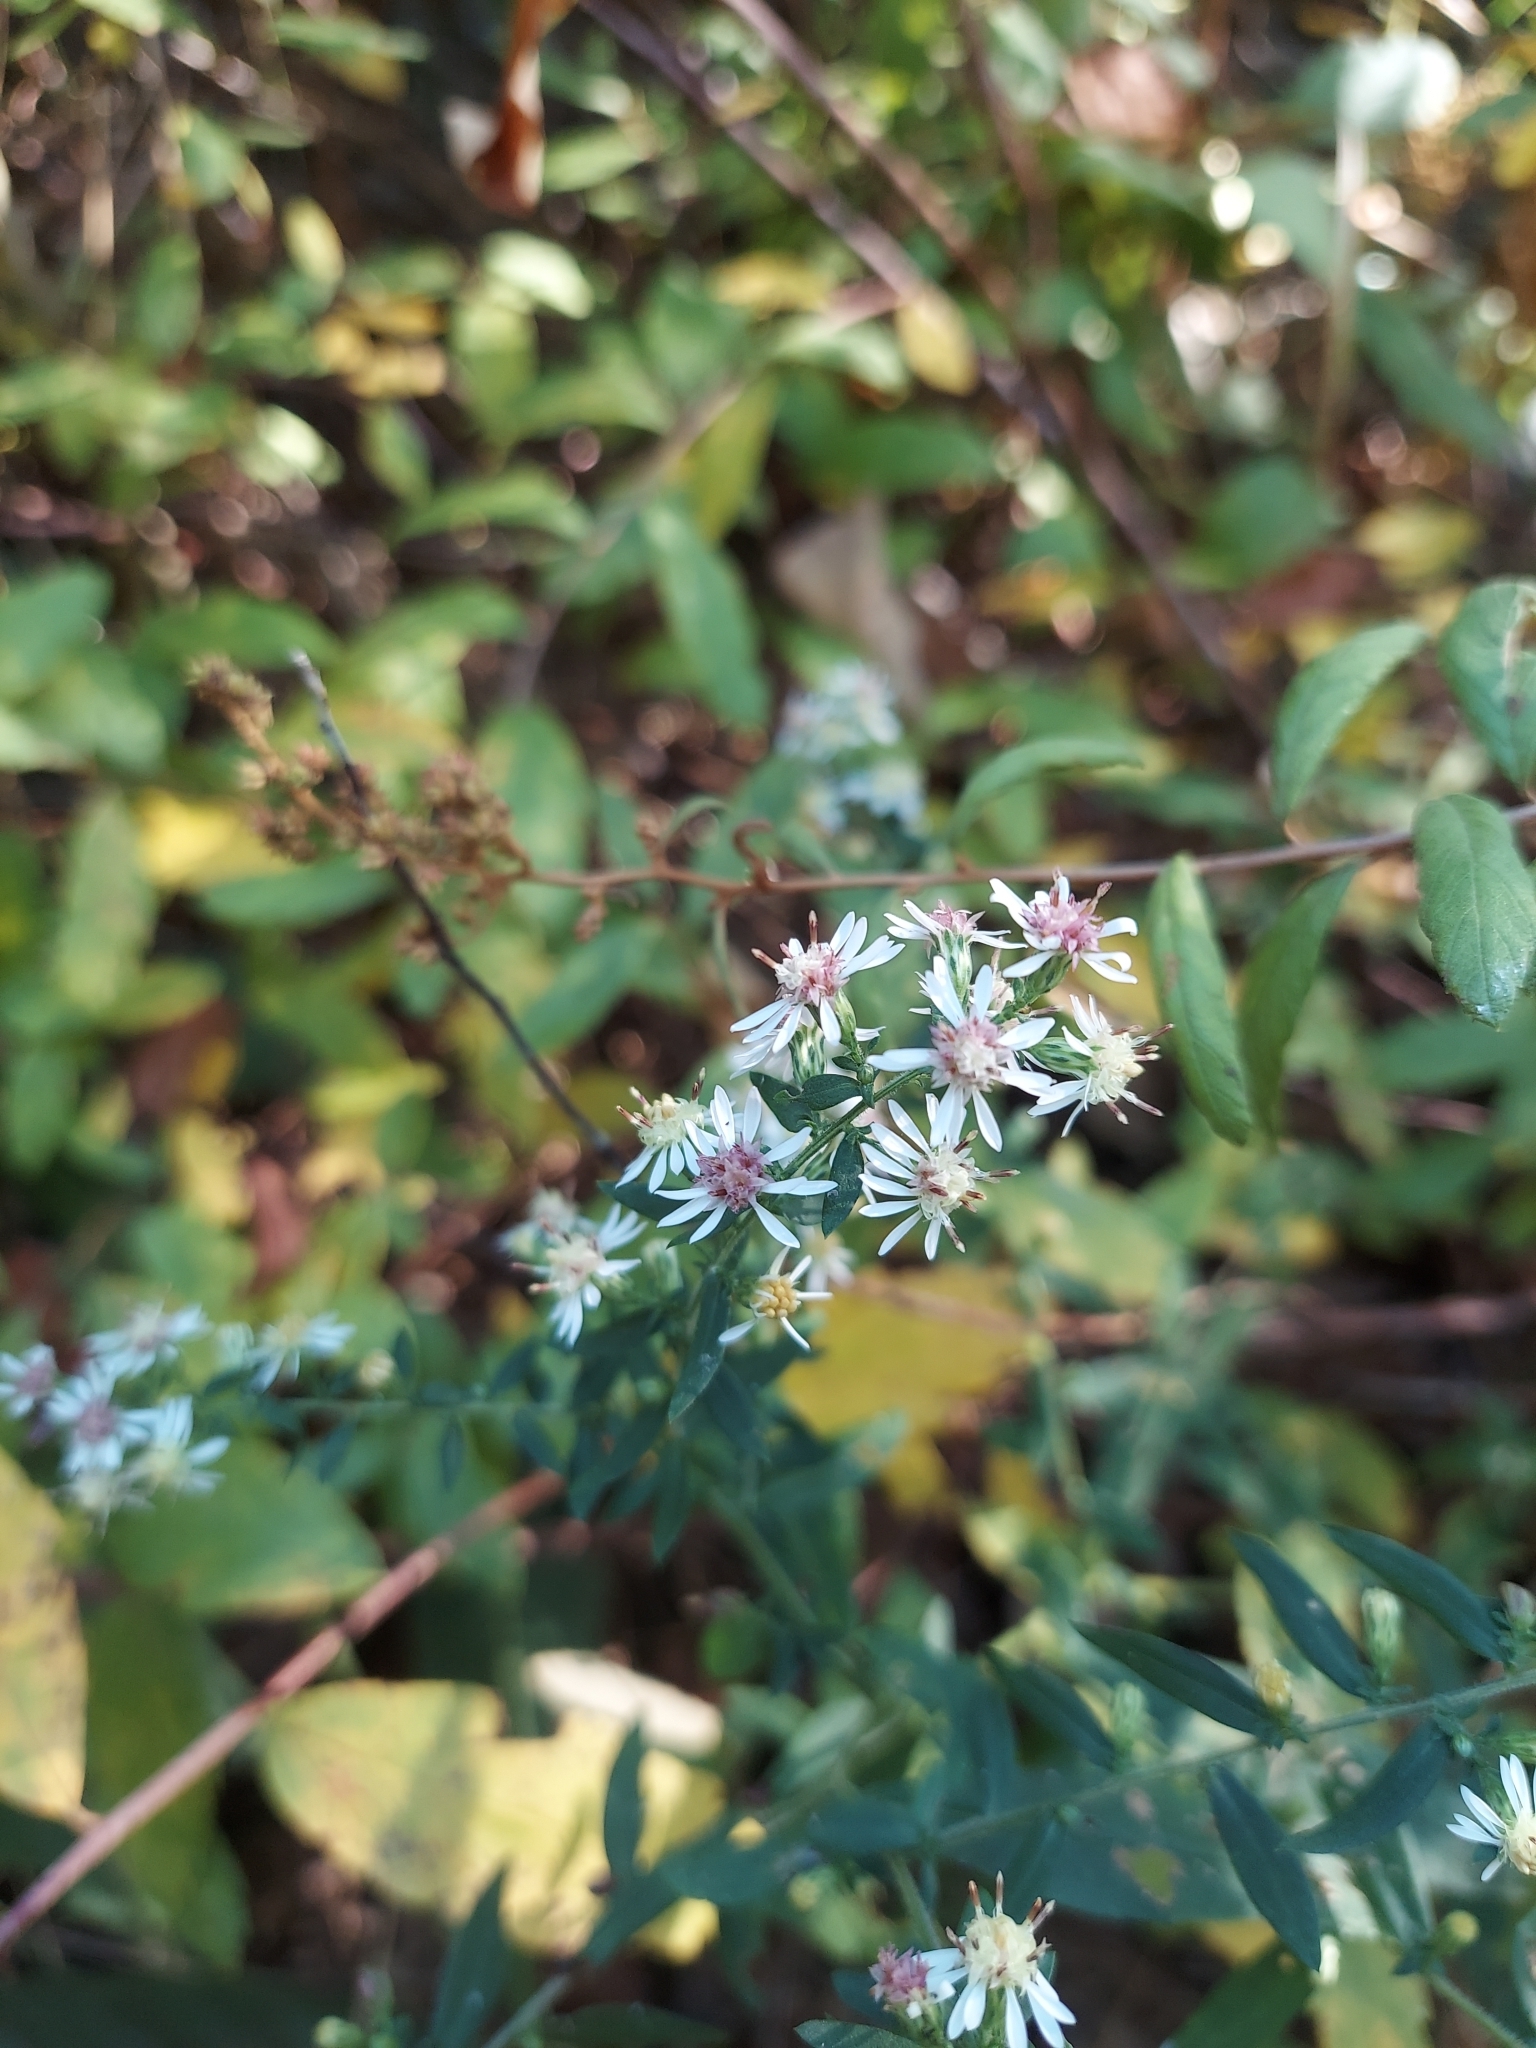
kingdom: Plantae
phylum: Tracheophyta
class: Magnoliopsida
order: Asterales
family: Asteraceae
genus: Symphyotrichum
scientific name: Symphyotrichum lateriflorum
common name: Calico aster
